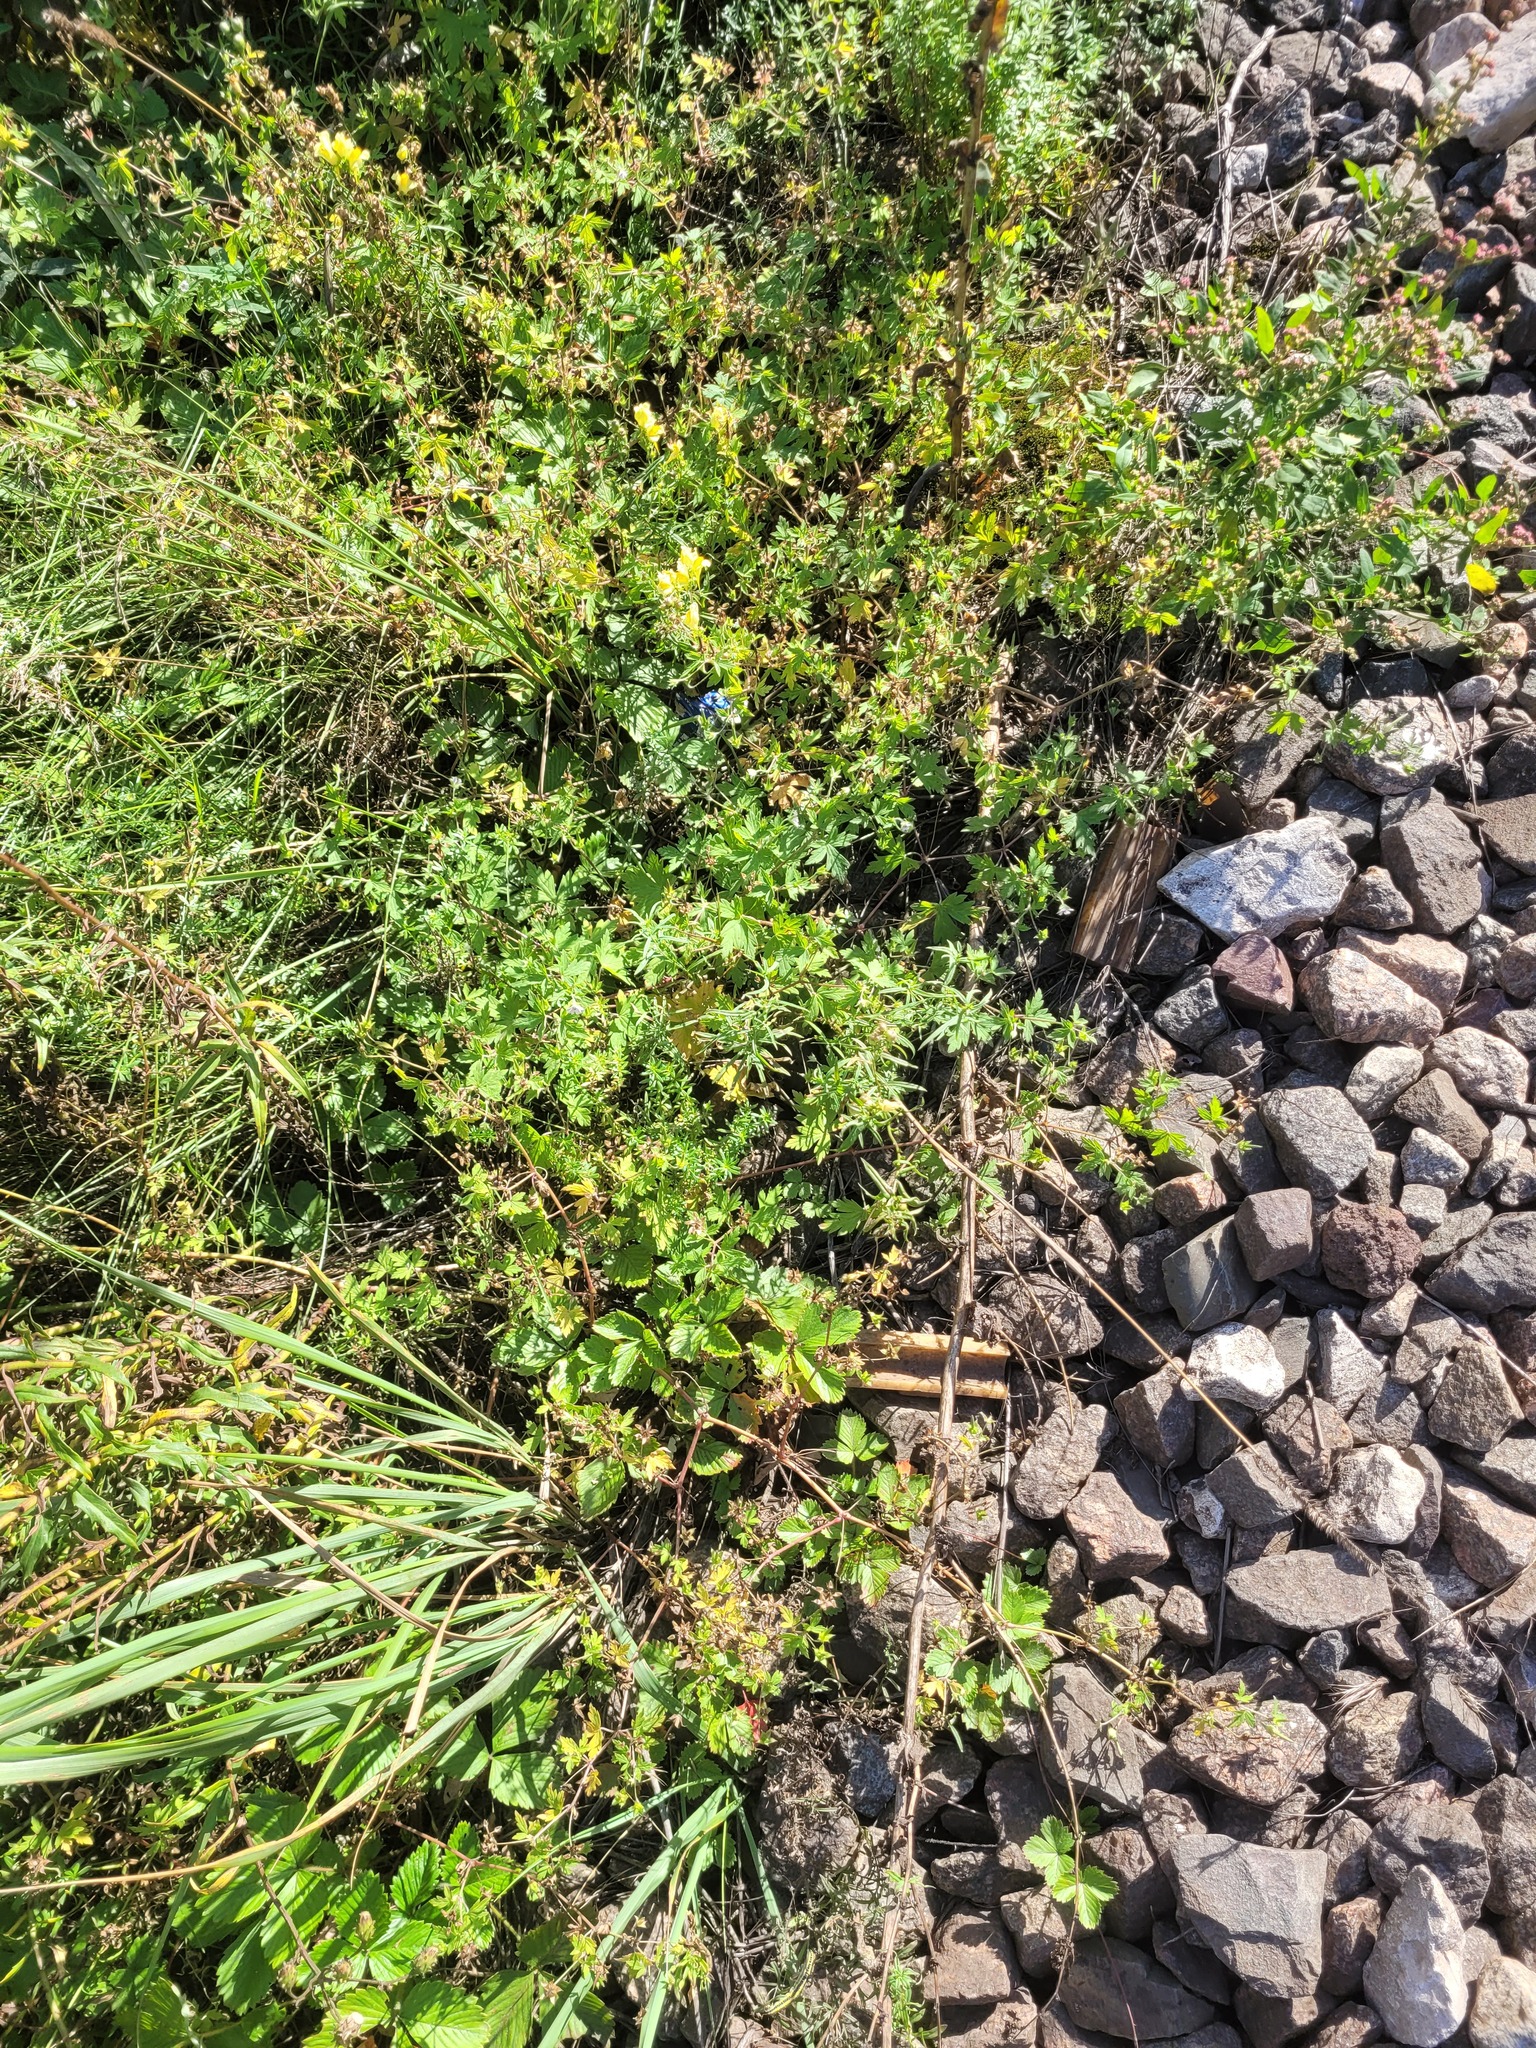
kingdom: Plantae
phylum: Tracheophyta
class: Magnoliopsida
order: Geraniales
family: Geraniaceae
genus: Geranium
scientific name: Geranium sibiricum
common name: Siberian crane's-bill
